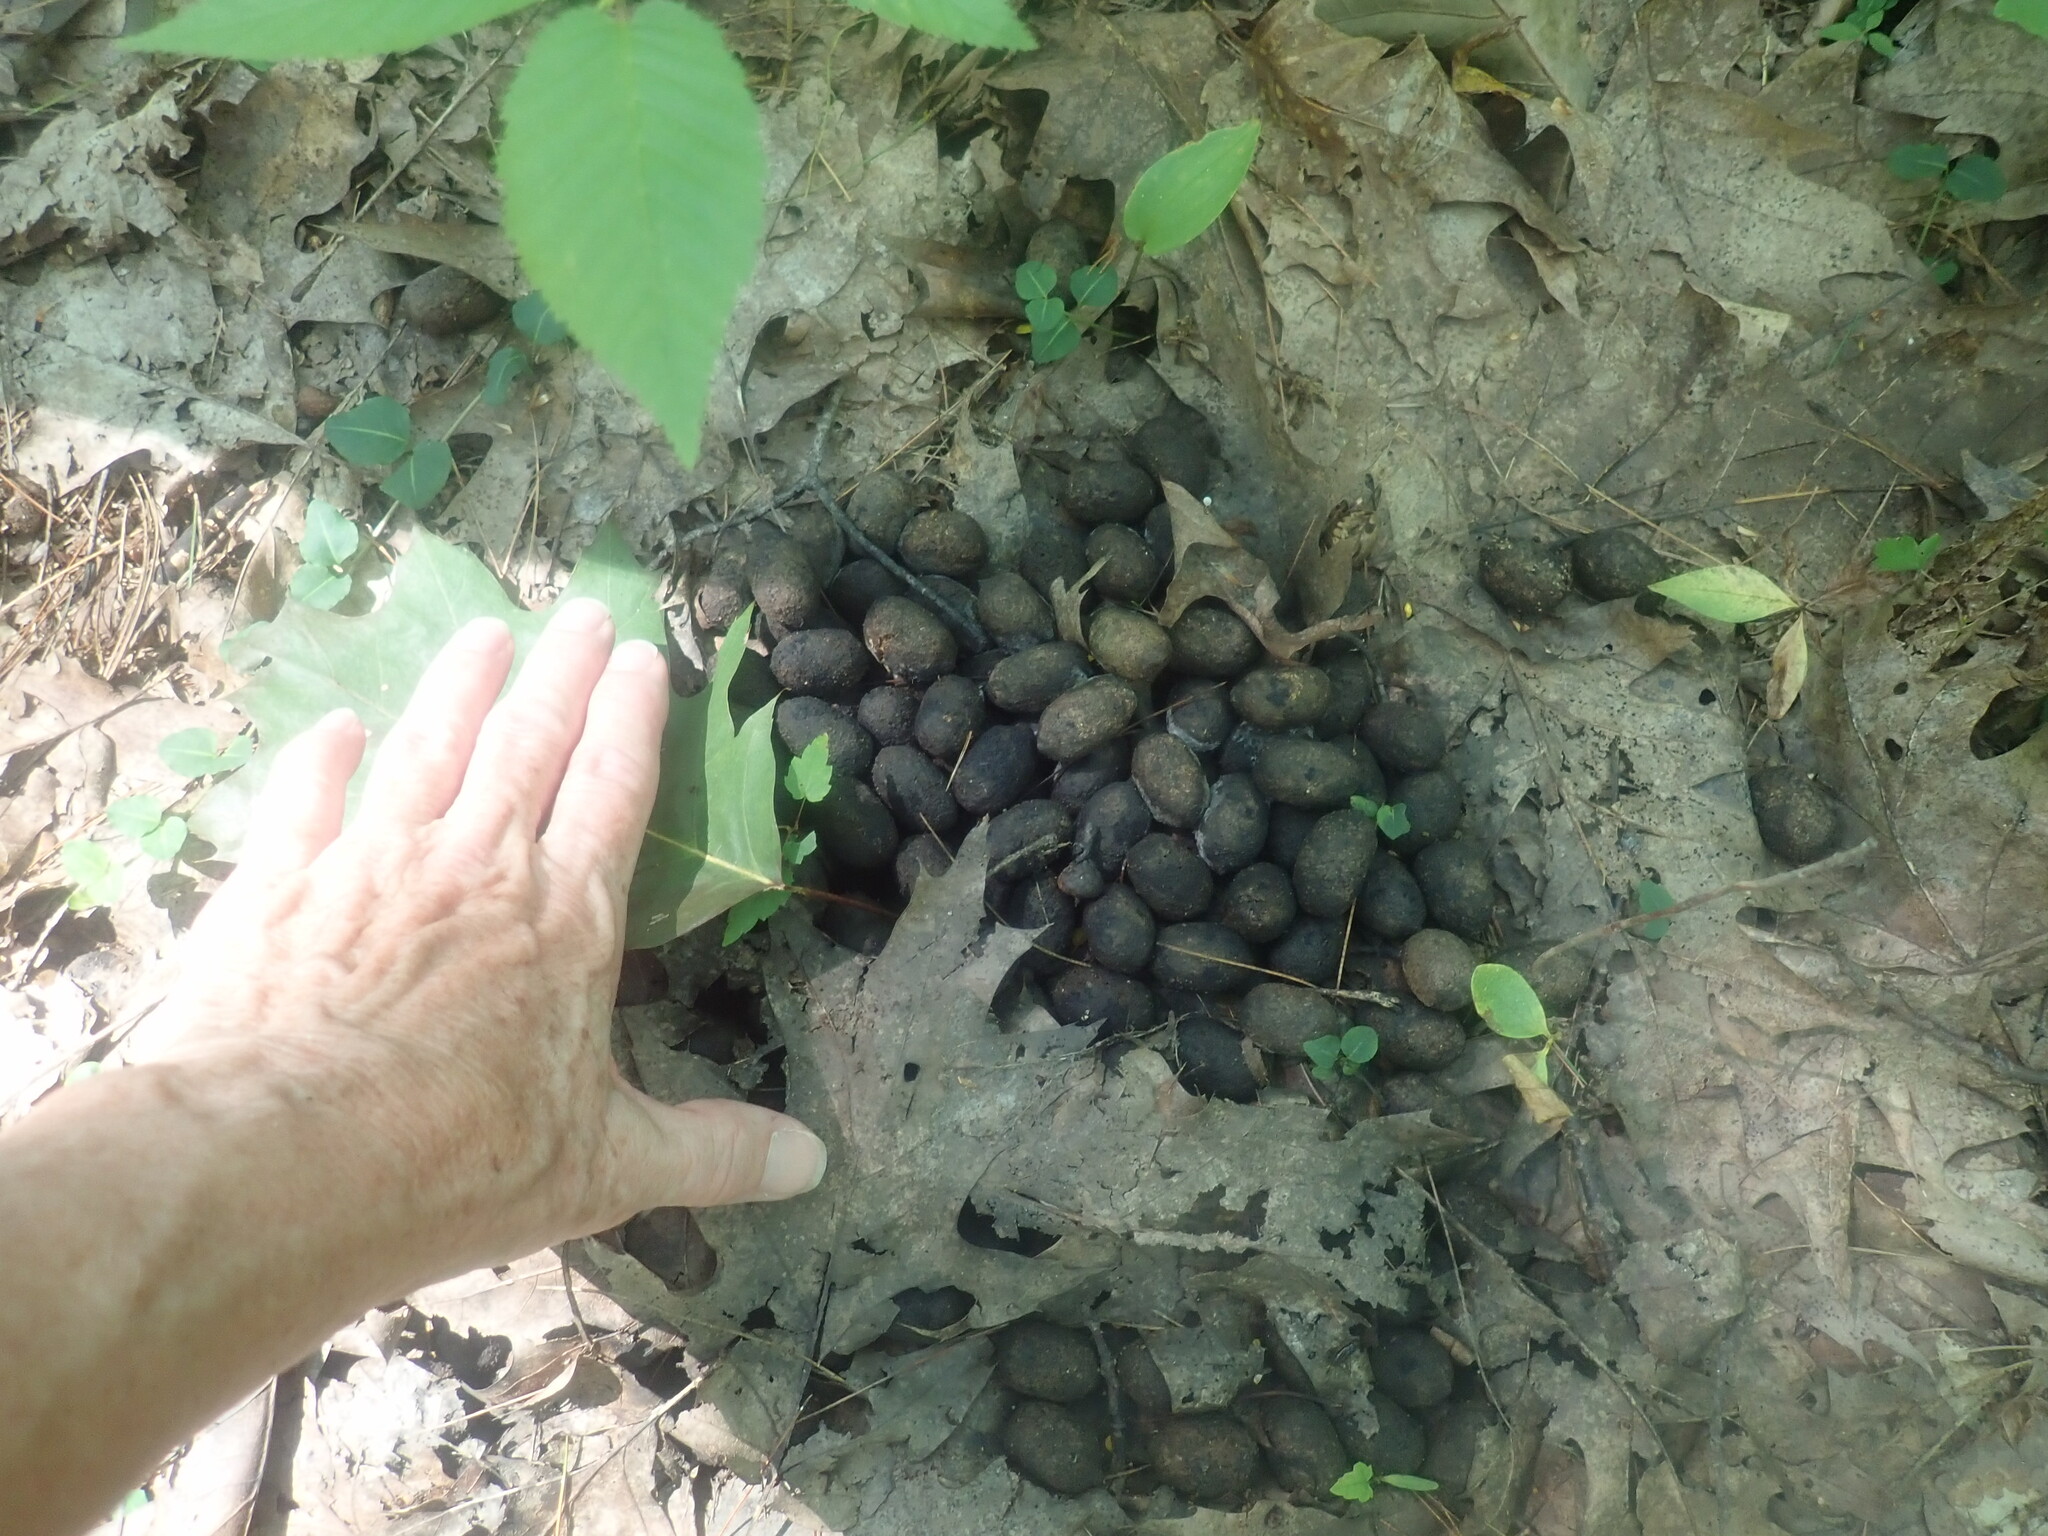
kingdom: Animalia
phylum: Chordata
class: Mammalia
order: Artiodactyla
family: Cervidae
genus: Alces
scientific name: Alces alces
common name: Moose
